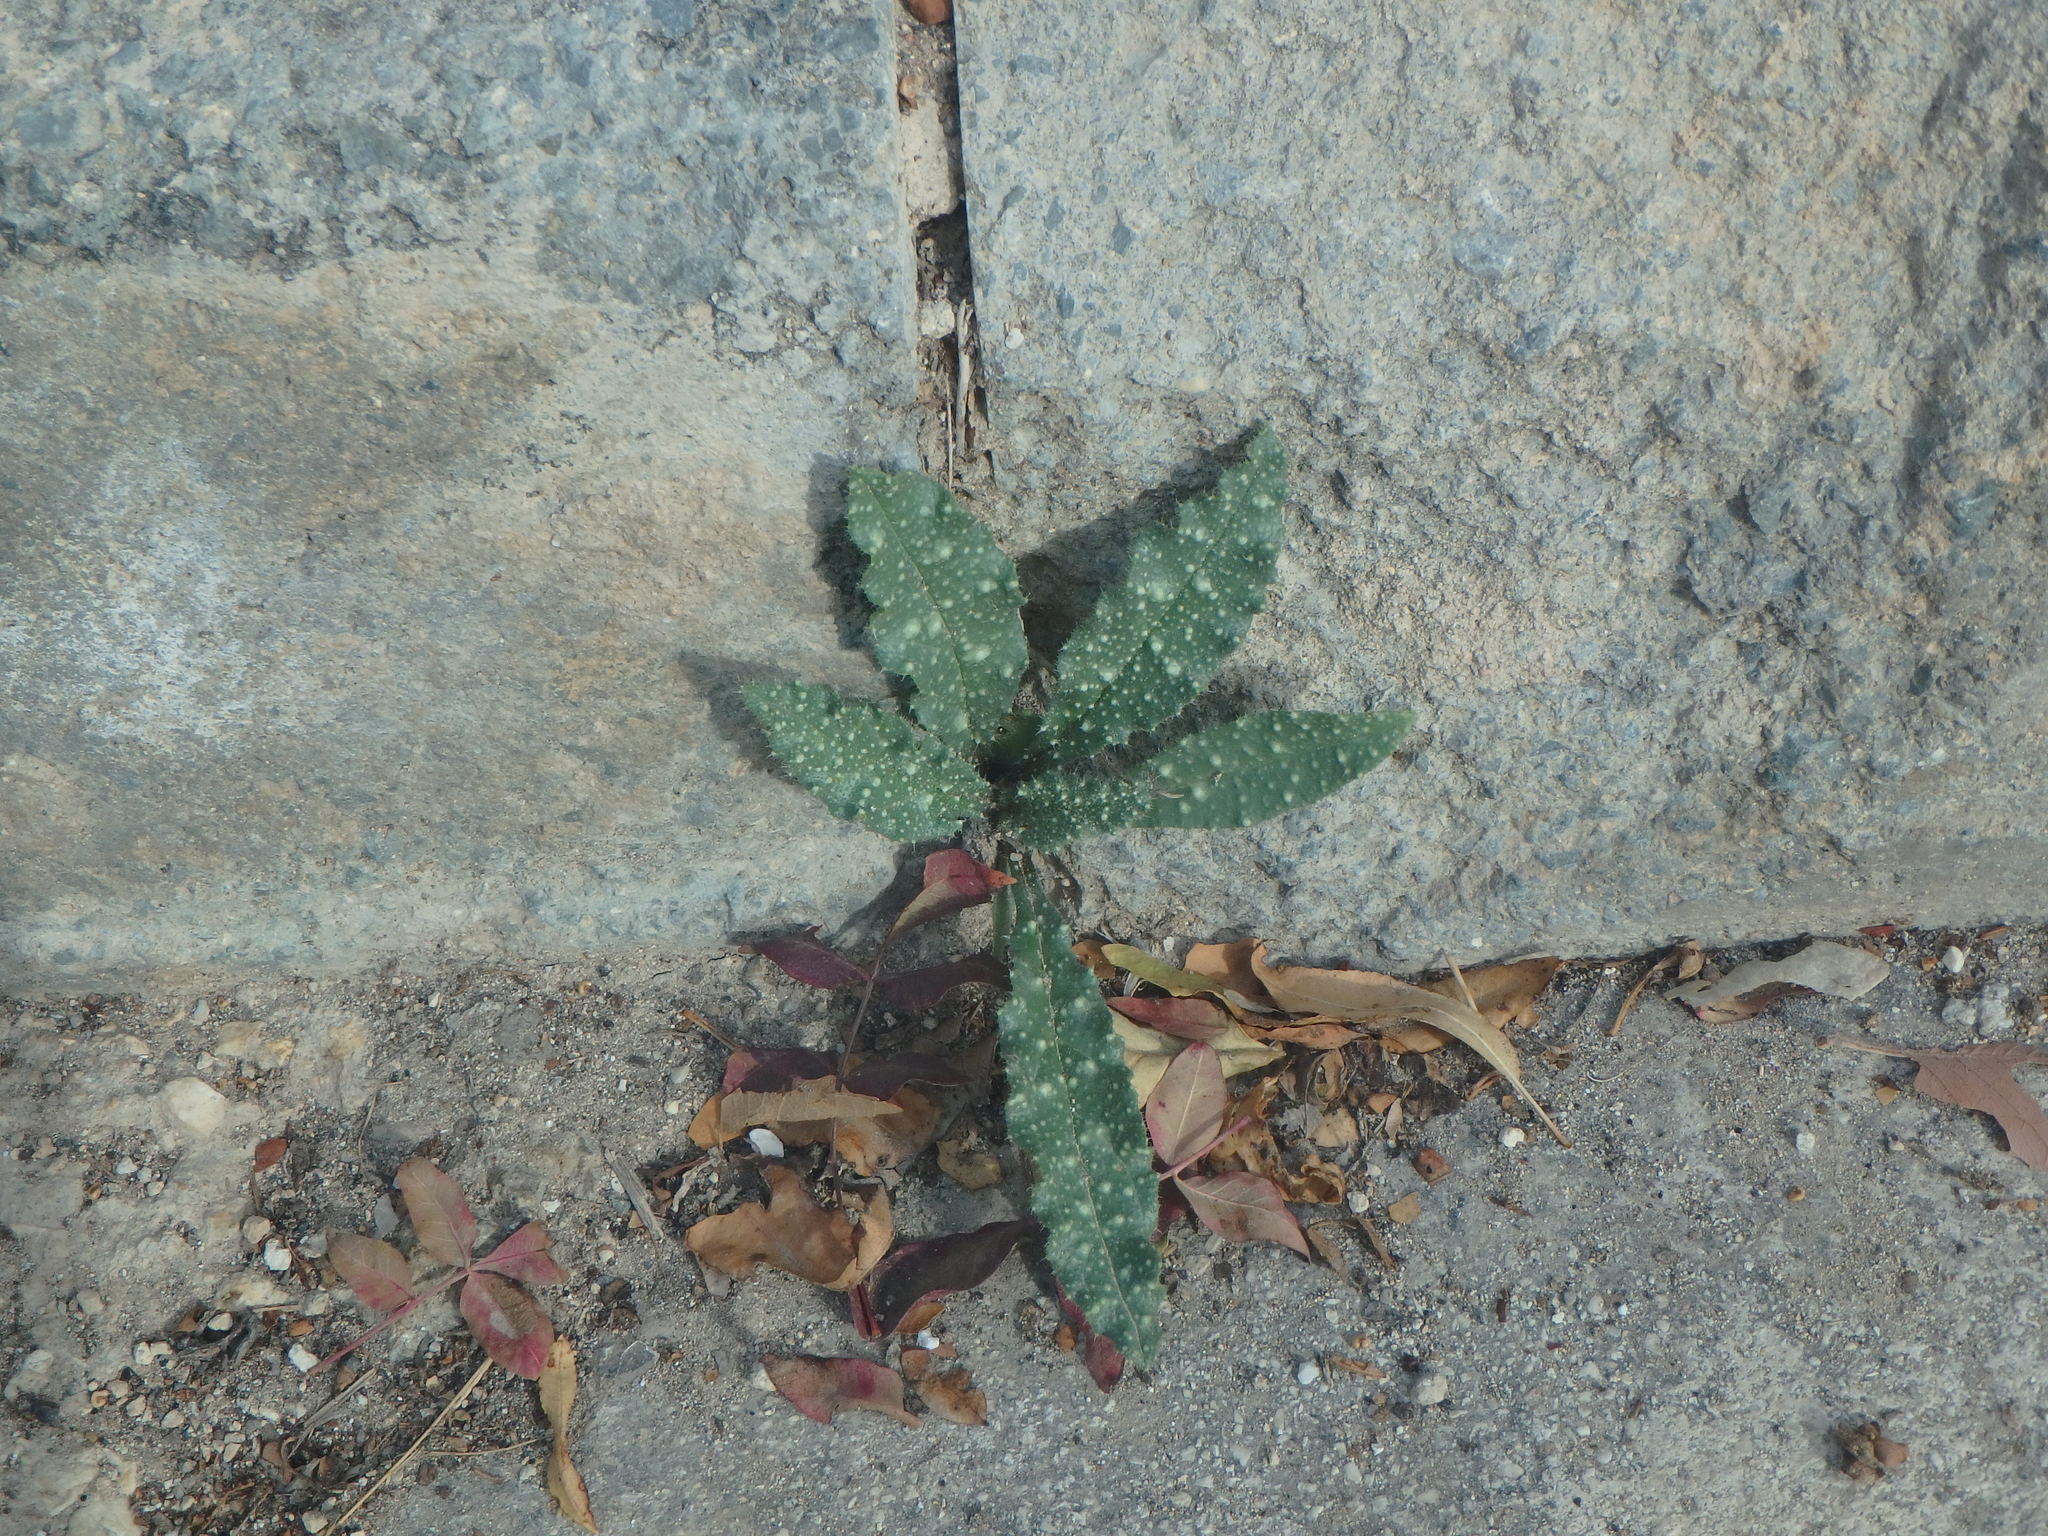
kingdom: Plantae
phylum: Tracheophyta
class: Magnoliopsida
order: Boraginales
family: Boraginaceae
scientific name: Boraginaceae
